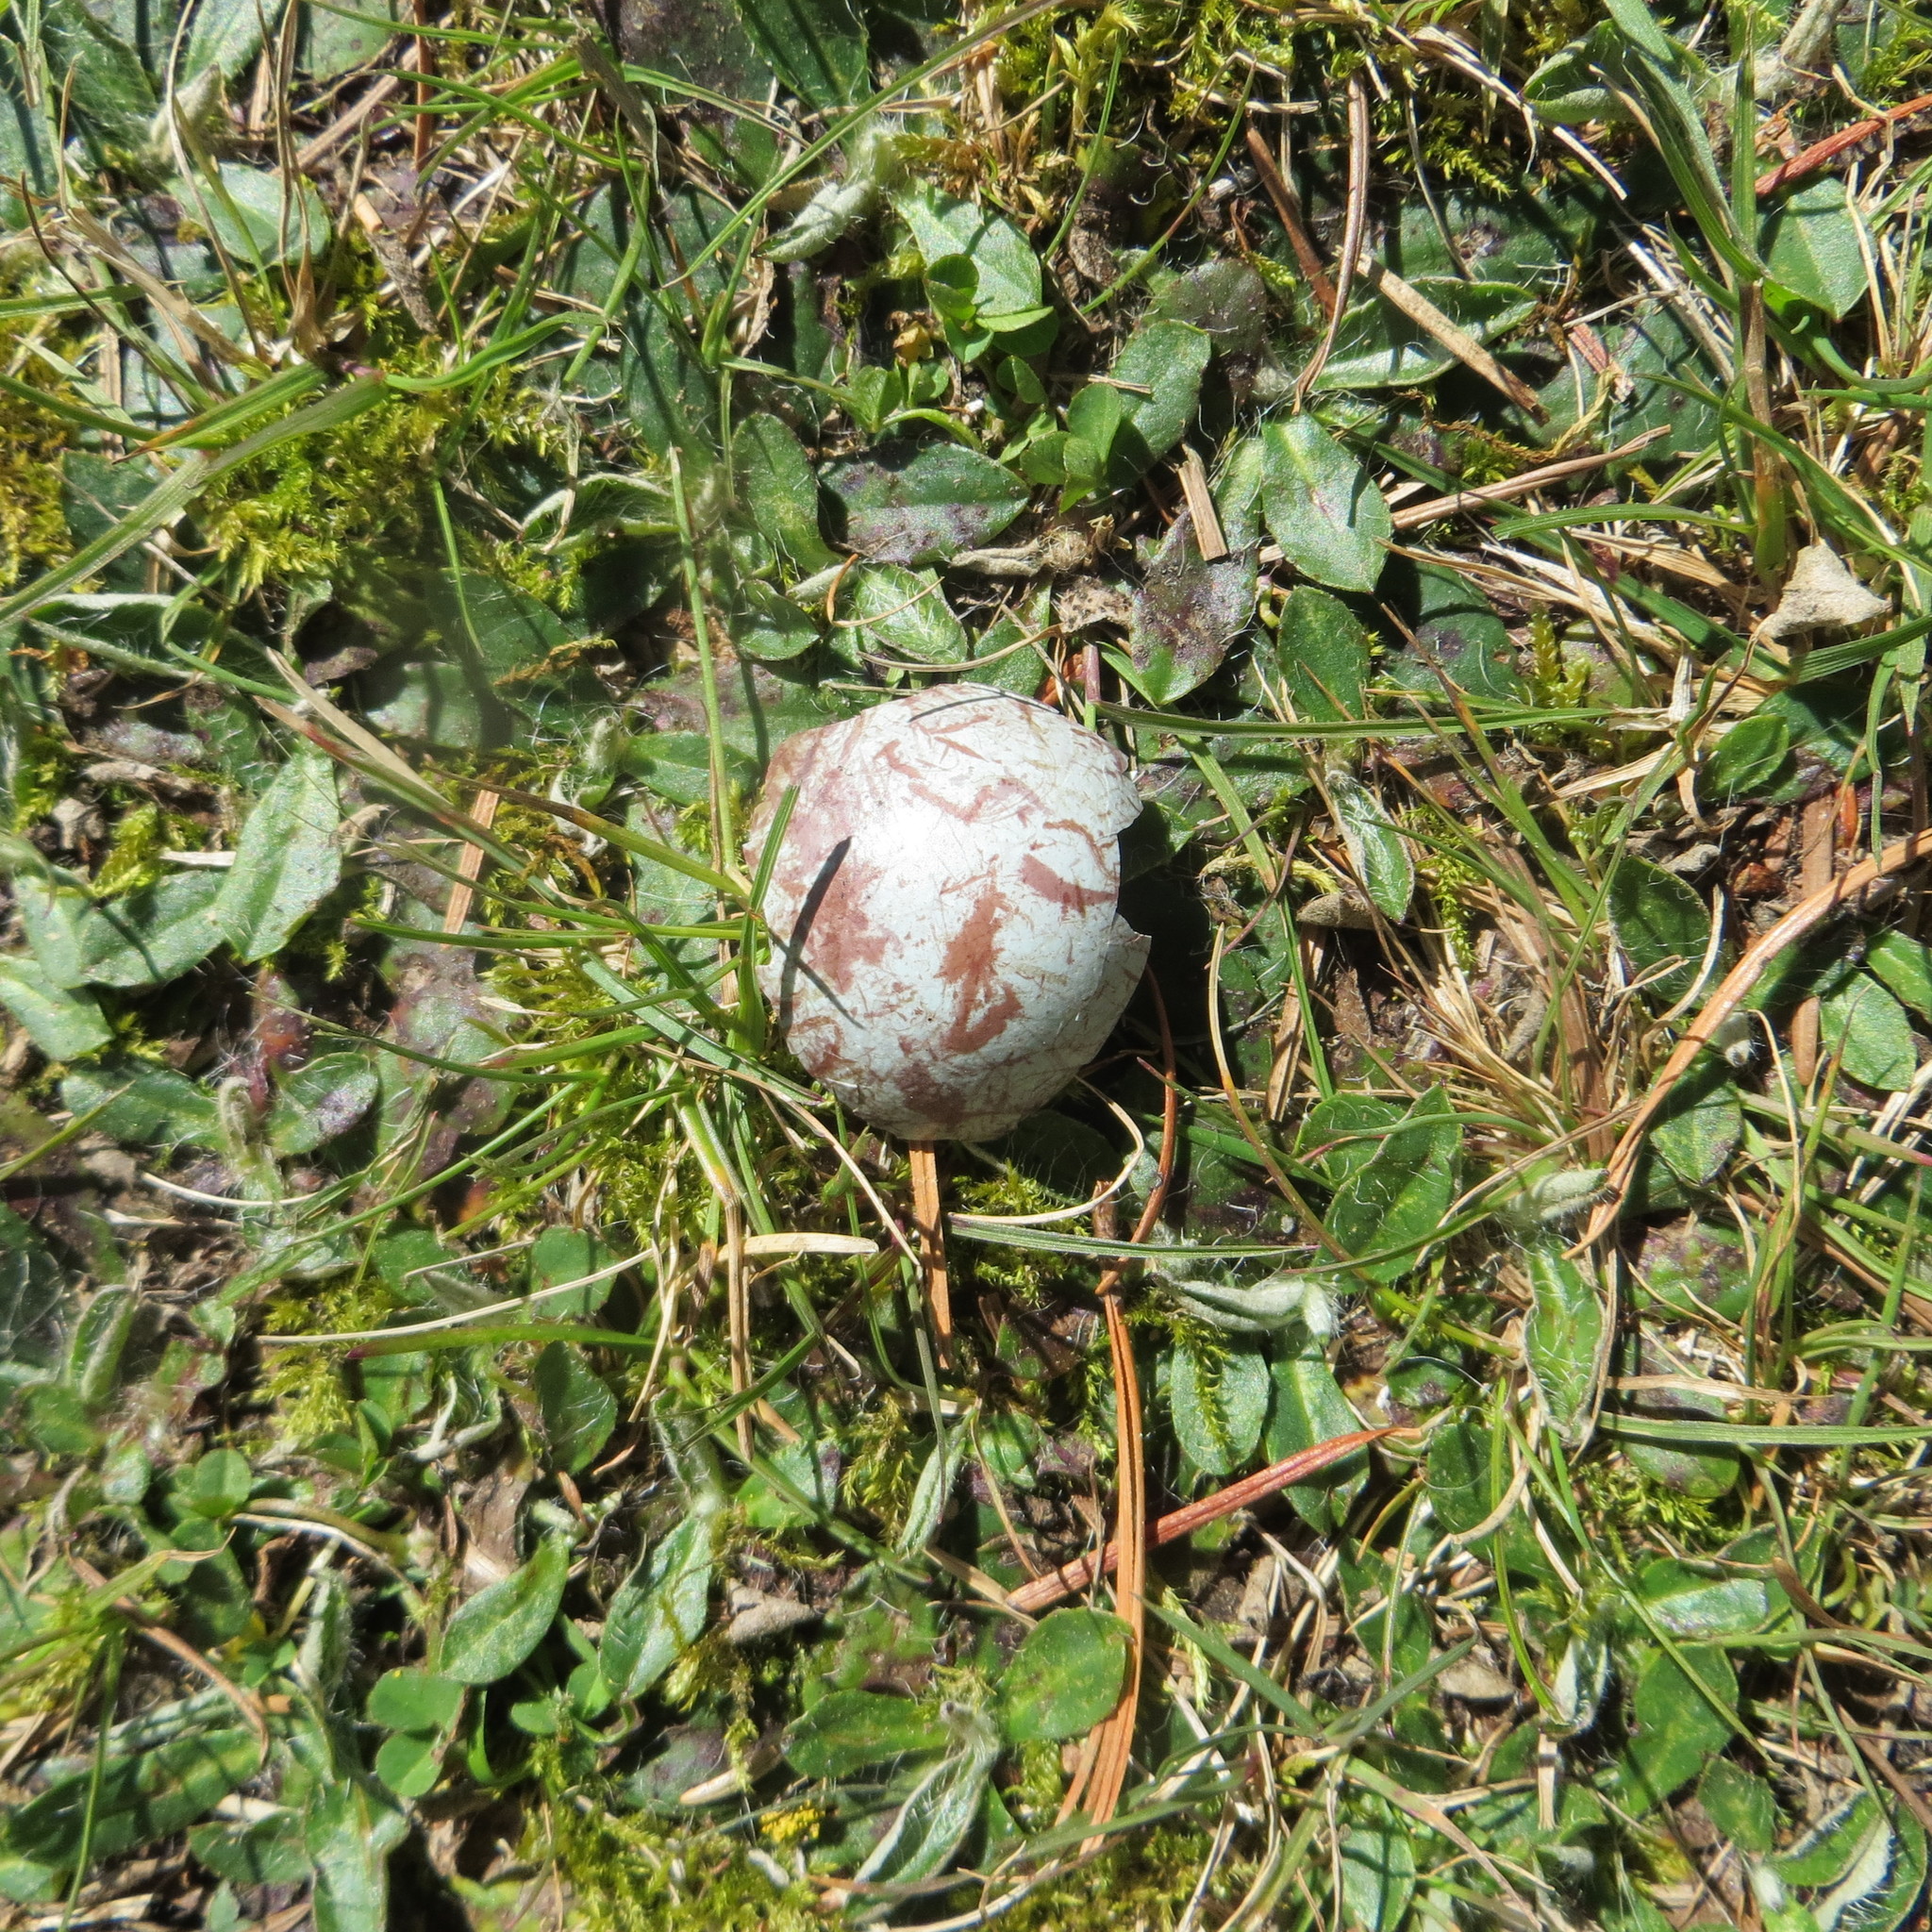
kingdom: Animalia
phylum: Chordata
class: Aves
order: Passeriformes
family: Cracticidae
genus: Gymnorhina
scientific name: Gymnorhina tibicen
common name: Australian magpie
